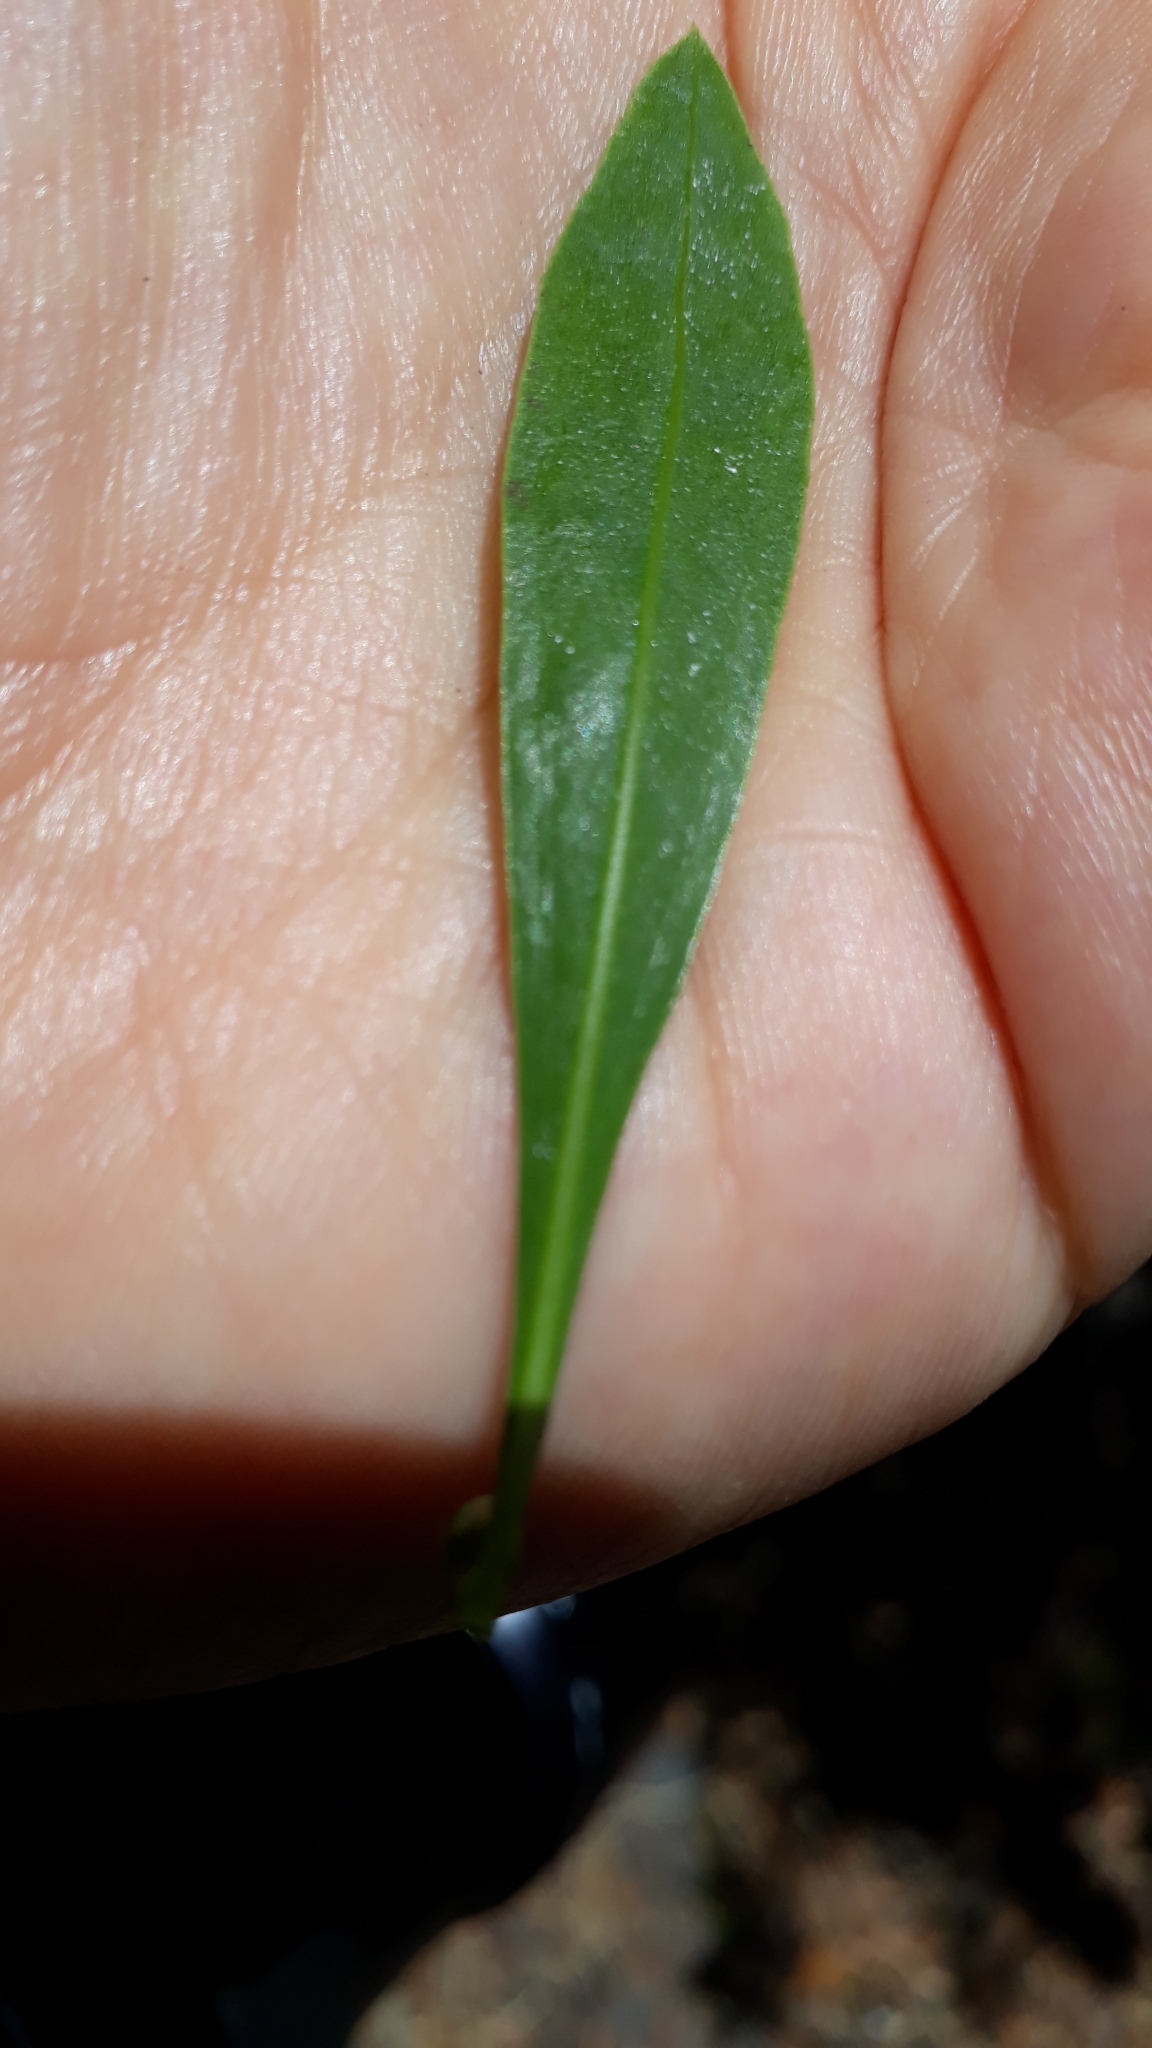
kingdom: Plantae
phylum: Tracheophyta
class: Magnoliopsida
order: Lamiales
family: Plantaginaceae
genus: Globularia
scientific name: Globularia salicina
